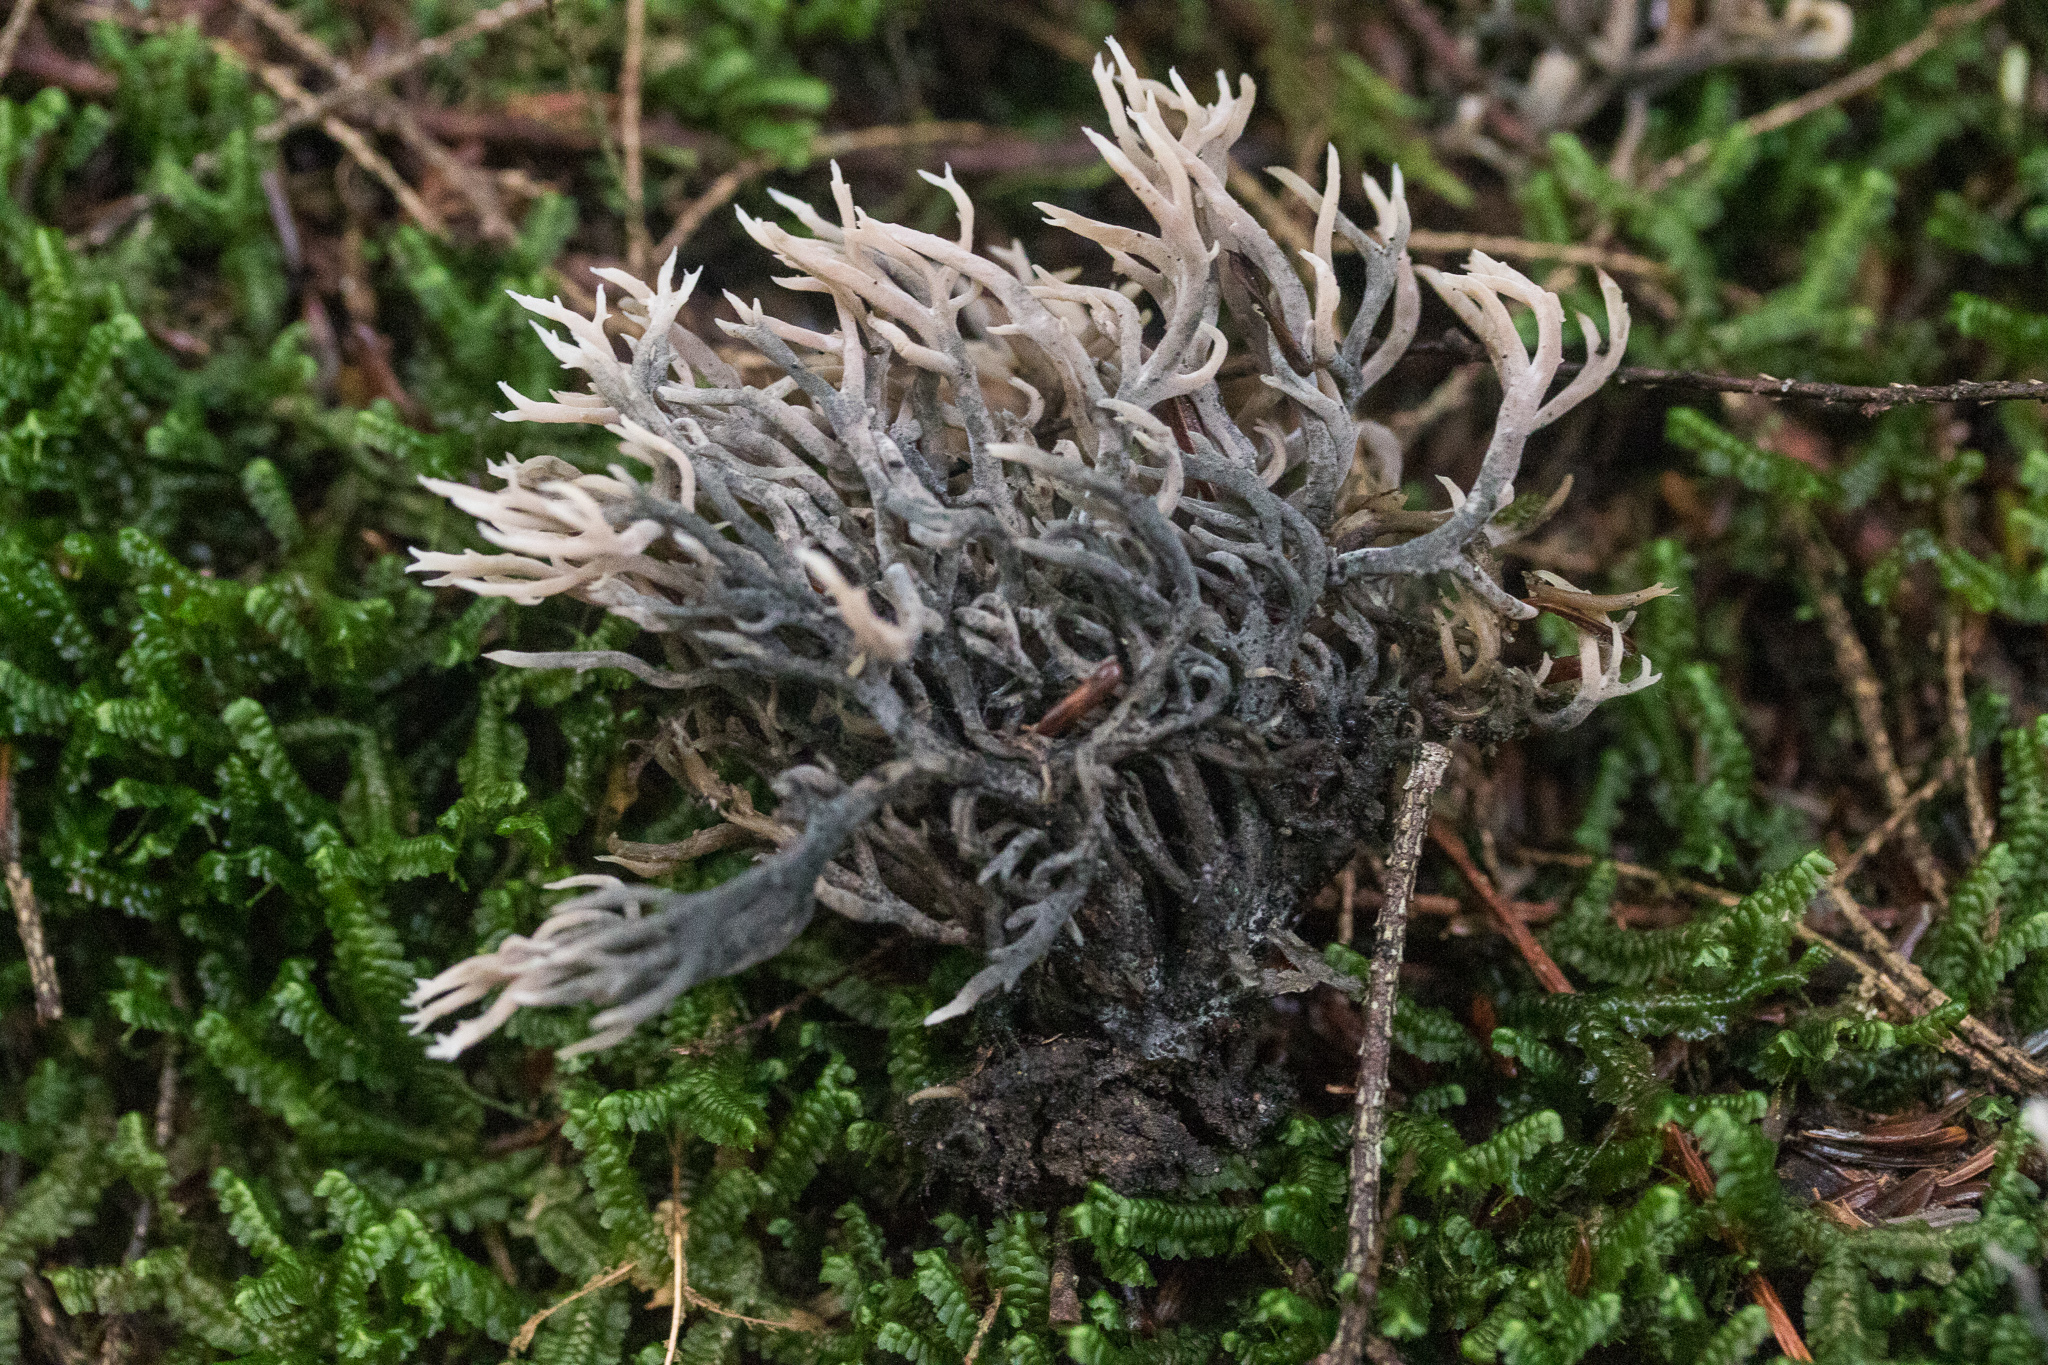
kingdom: Fungi
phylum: Ascomycota
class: Sordariomycetes
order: Sordariales
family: Helminthosphaeriaceae
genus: Helminthosphaeria
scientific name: Helminthosphaeria clavariarum
